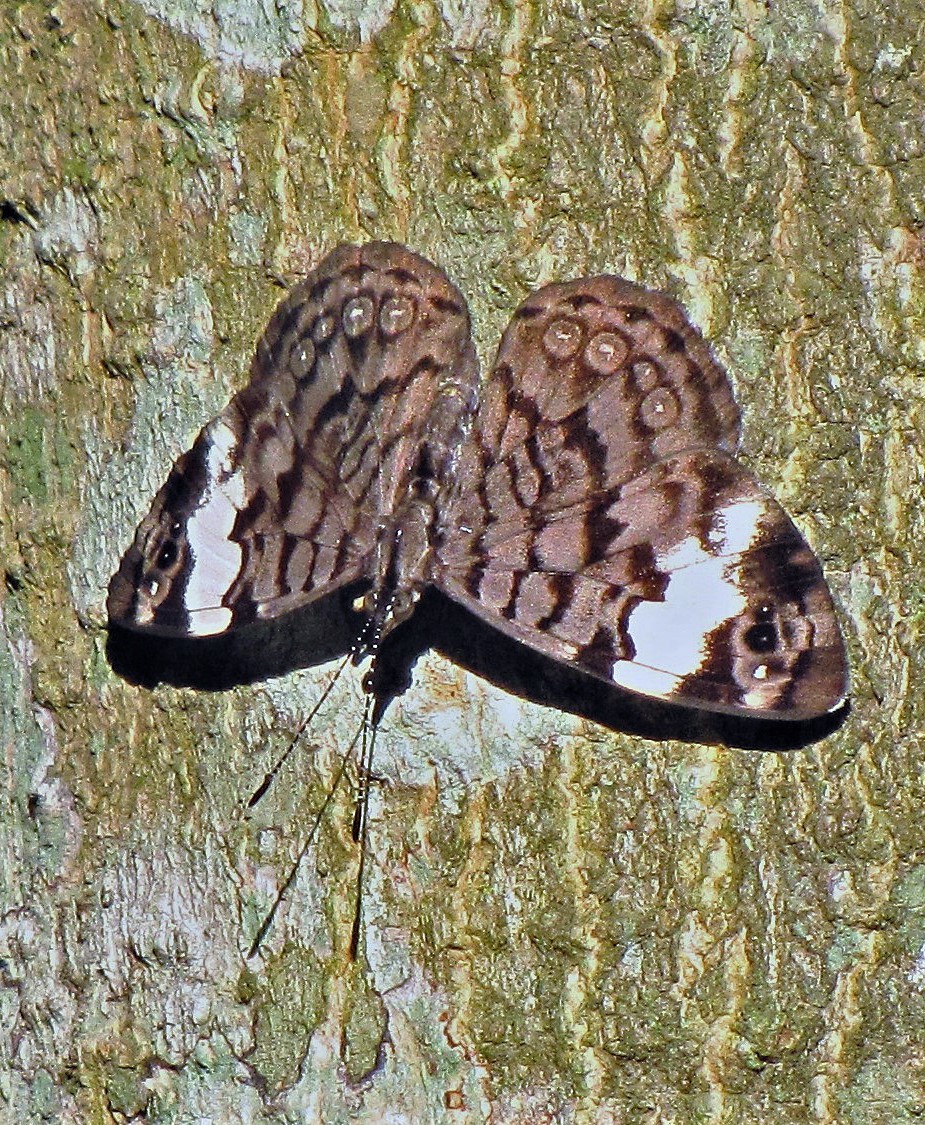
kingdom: Animalia
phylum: Arthropoda
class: Insecta
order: Lepidoptera
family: Nymphalidae
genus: Ectima
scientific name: Ectima thecla
